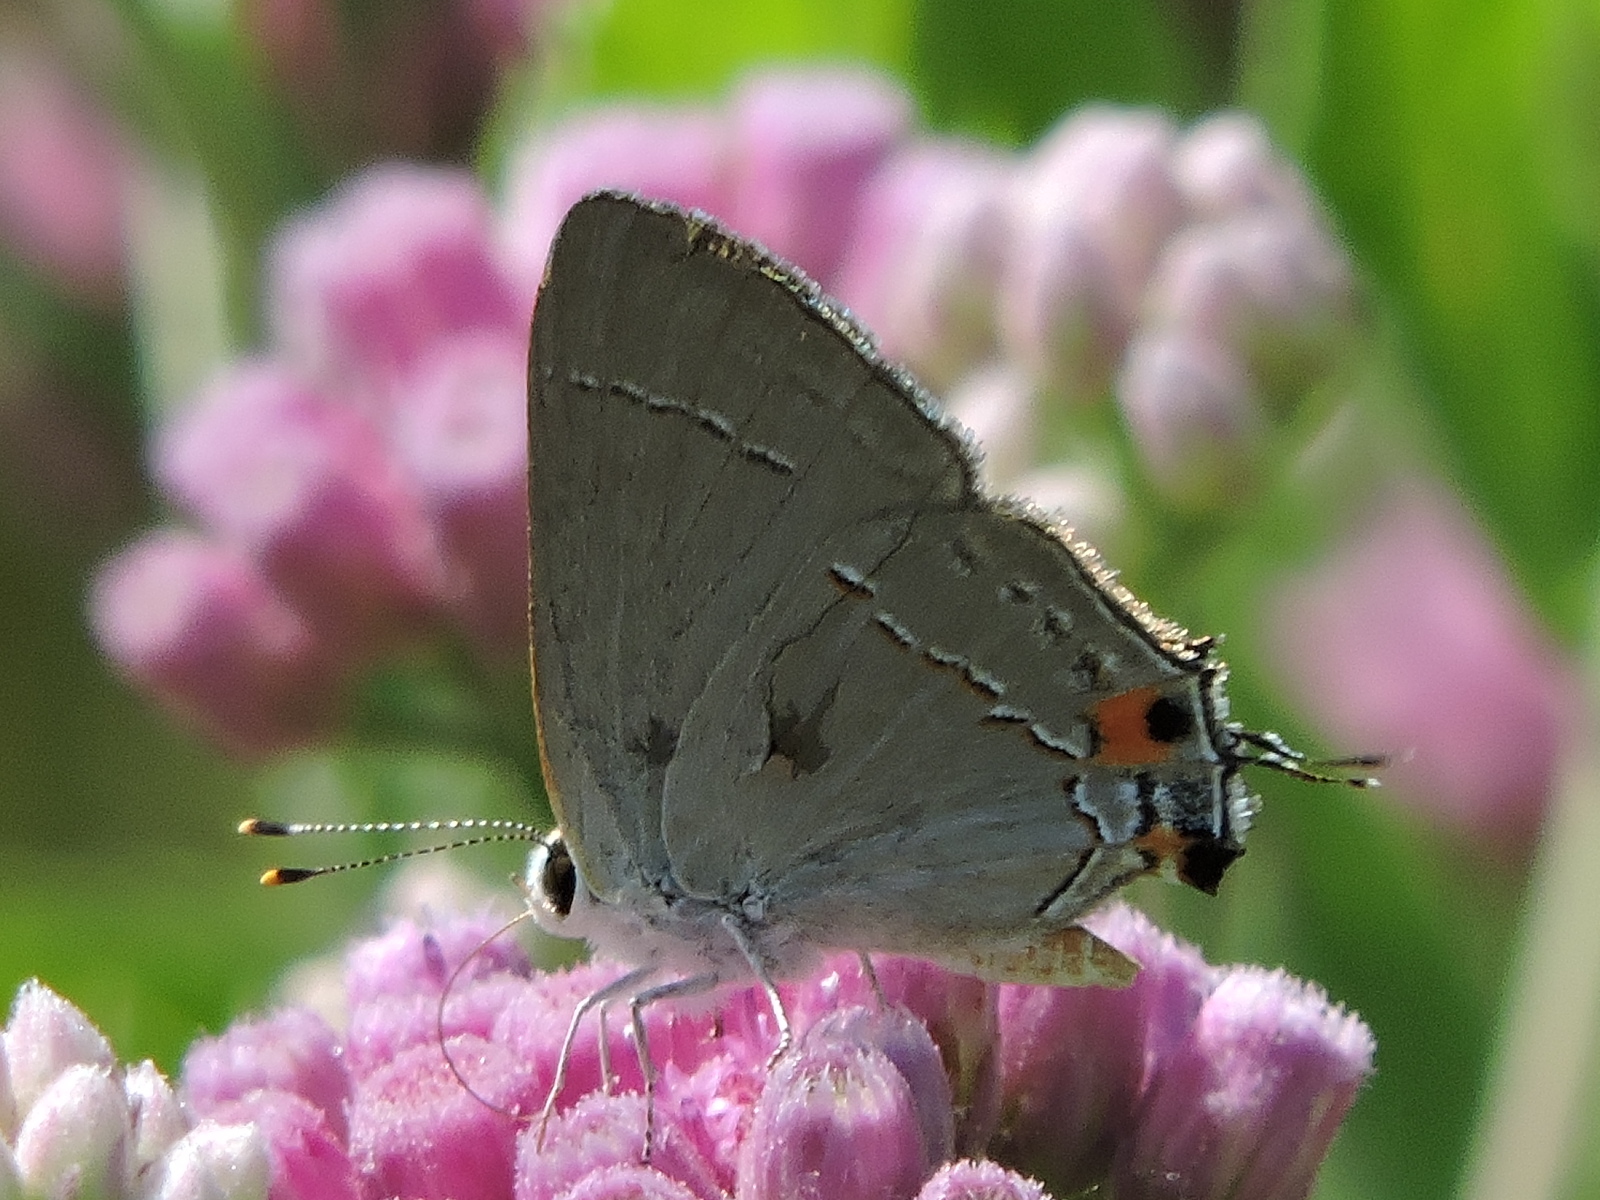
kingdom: Animalia
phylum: Arthropoda
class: Insecta
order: Lepidoptera
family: Lycaenidae
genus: Strymon
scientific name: Strymon melinus
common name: Gray hairstreak
